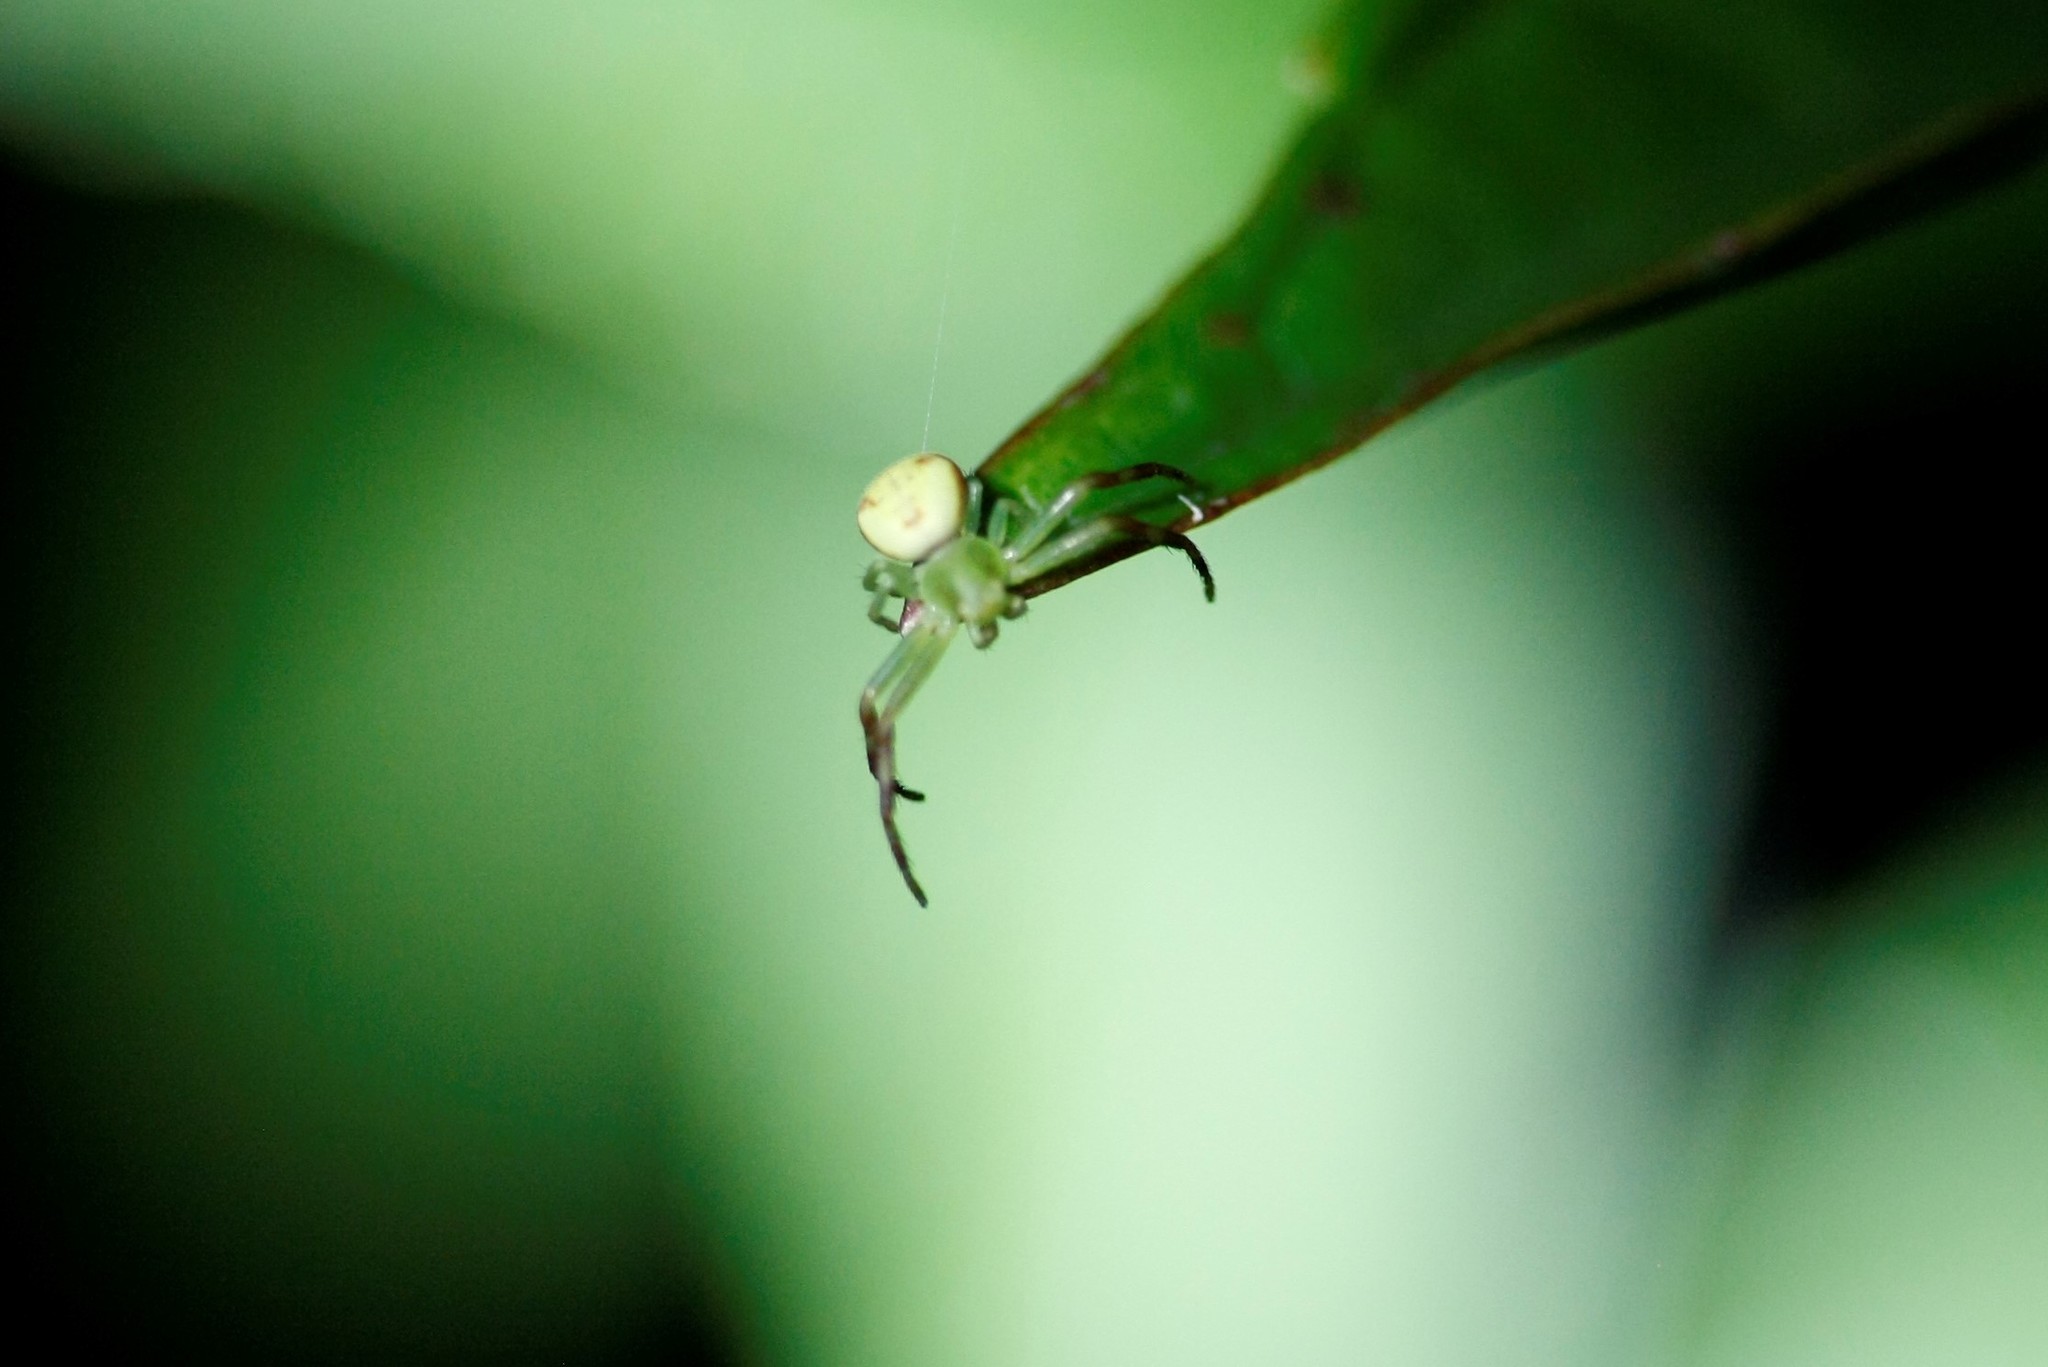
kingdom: Animalia
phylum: Arthropoda
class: Arachnida
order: Araneae
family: Thomisidae
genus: Ebrechtella
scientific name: Ebrechtella tricuspidata
